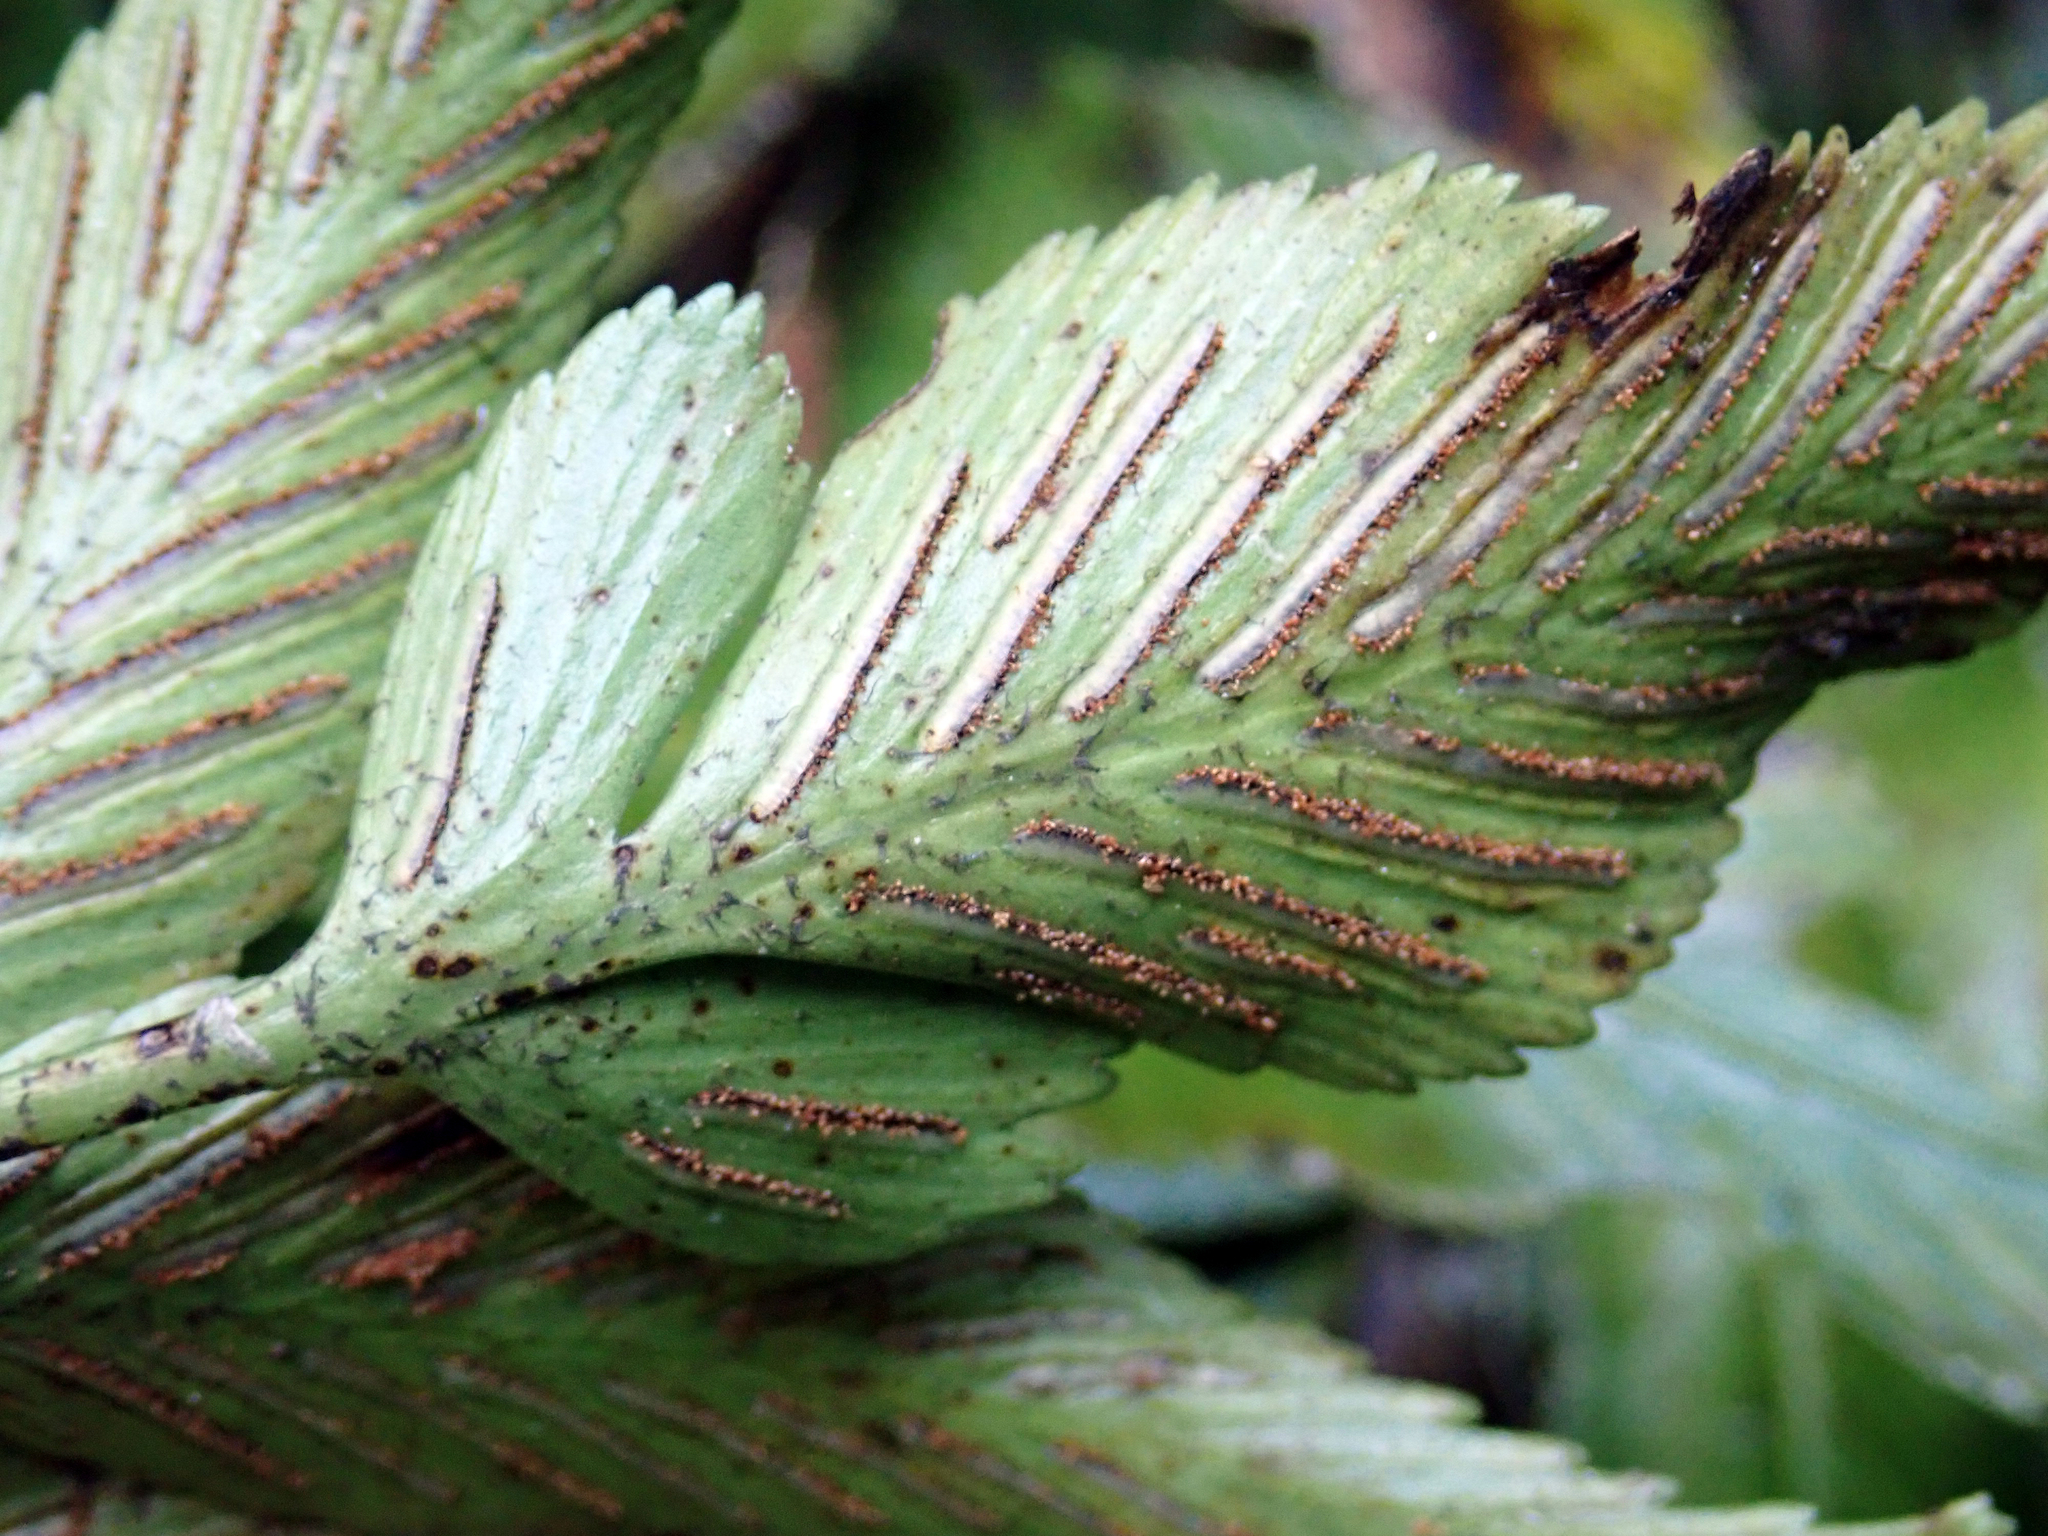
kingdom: Plantae
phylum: Tracheophyta
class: Polypodiopsida
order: Polypodiales
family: Aspleniaceae
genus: Asplenium
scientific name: Asplenium lepidotum
